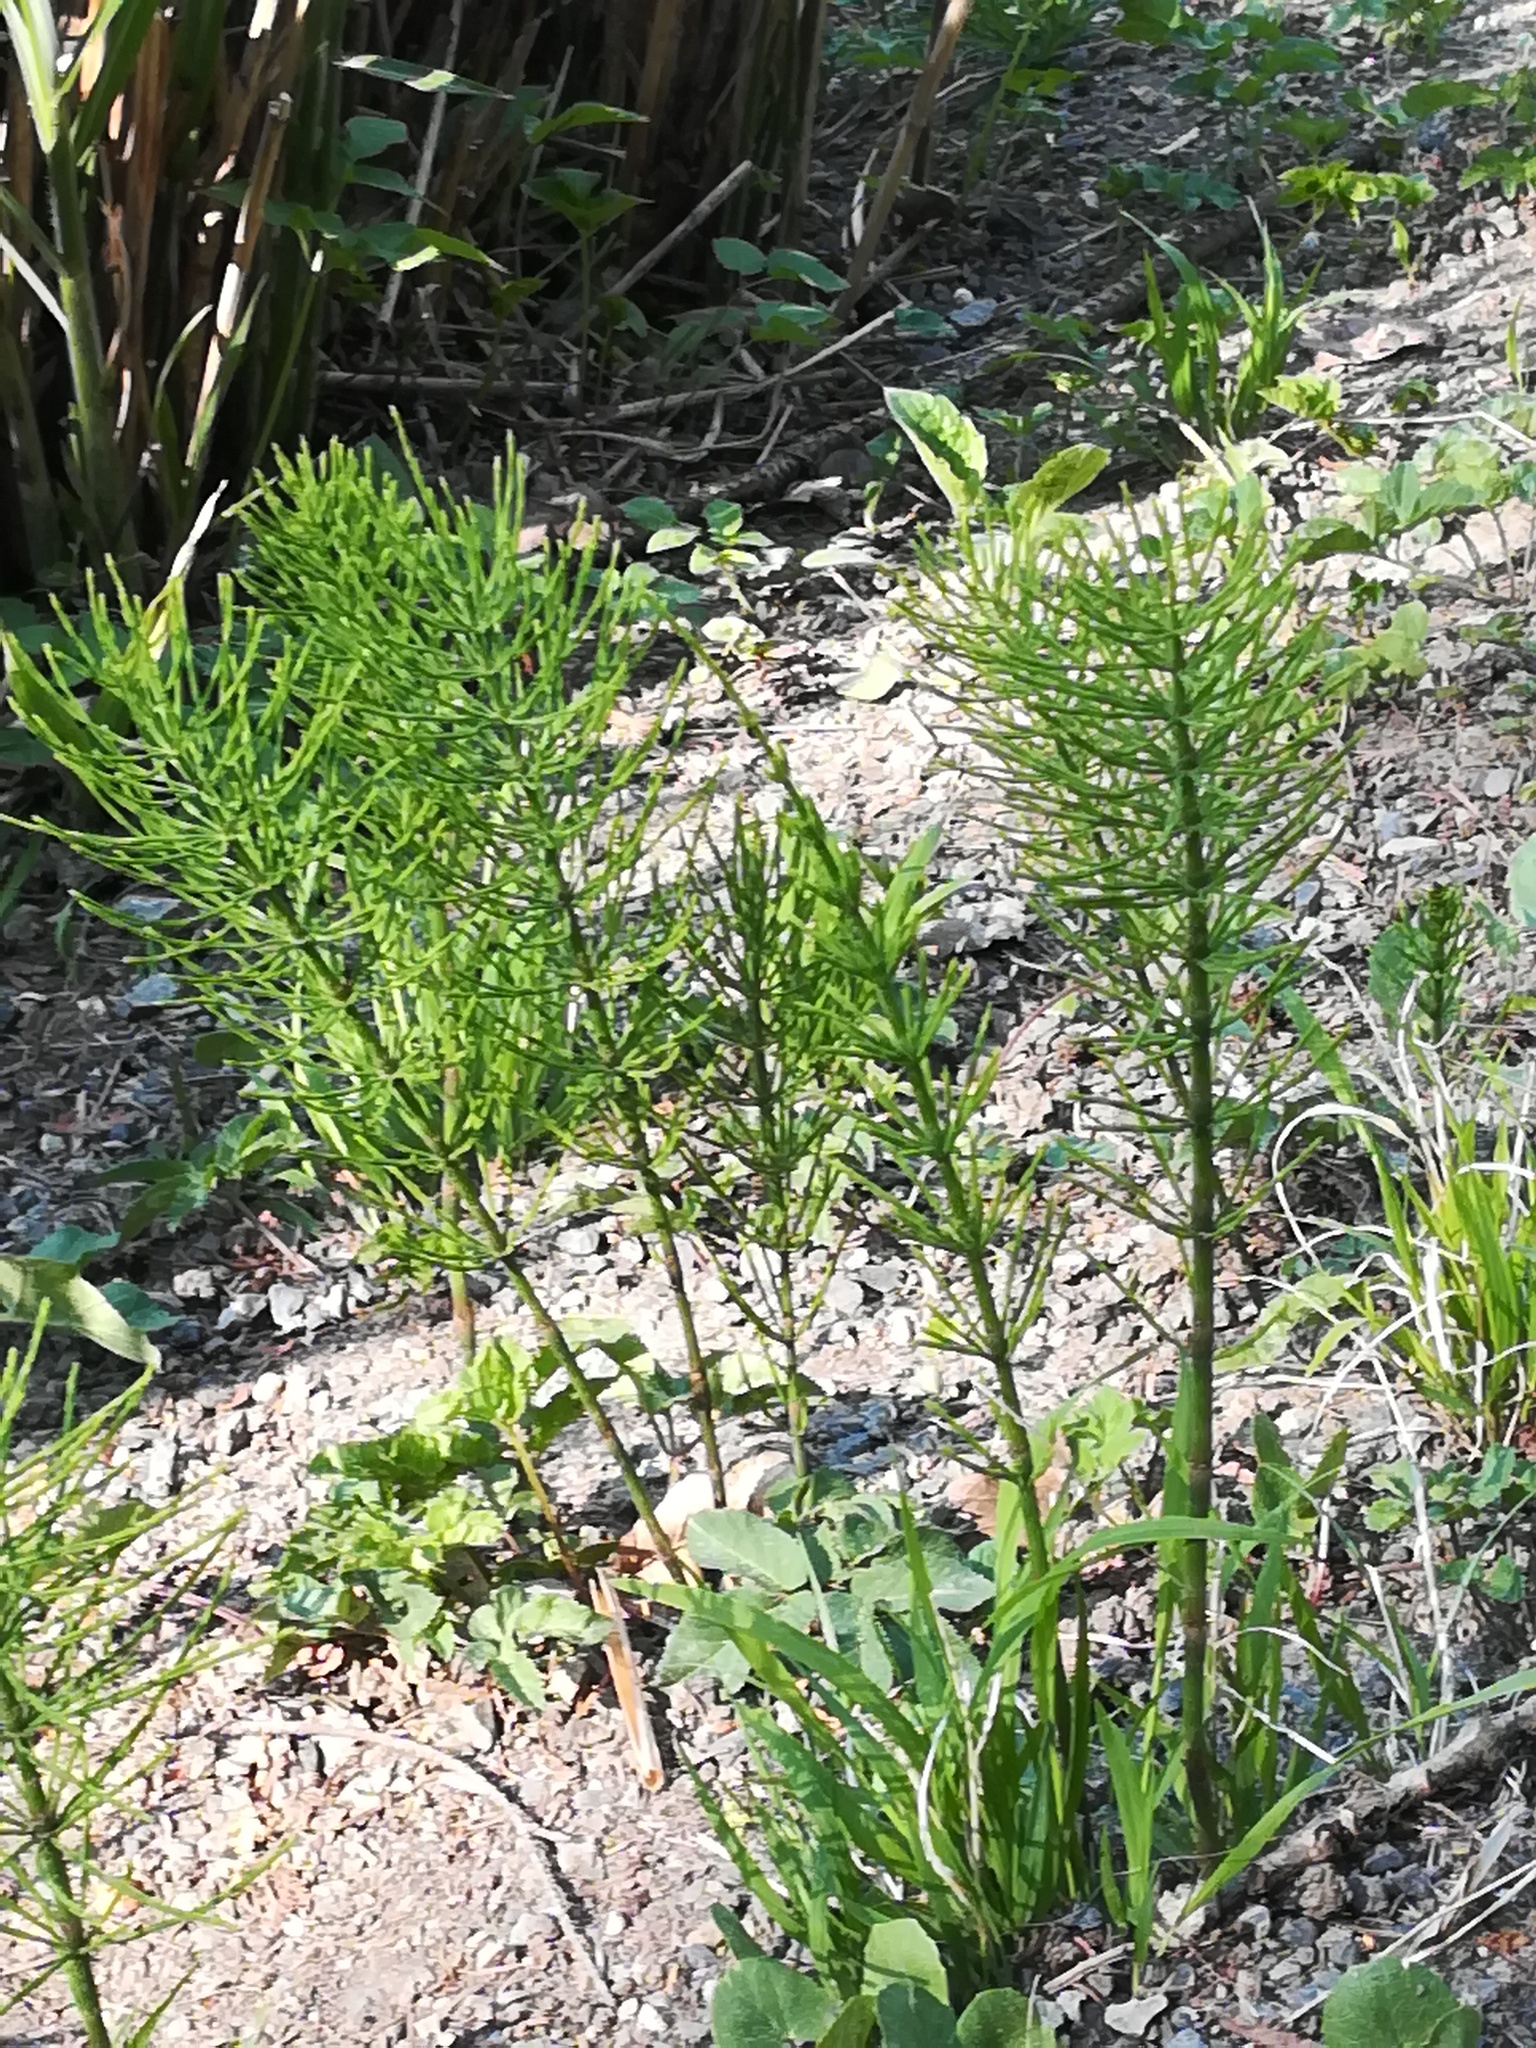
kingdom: Plantae
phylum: Tracheophyta
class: Polypodiopsida
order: Equisetales
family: Equisetaceae
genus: Equisetum
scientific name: Equisetum arvense
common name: Field horsetail
